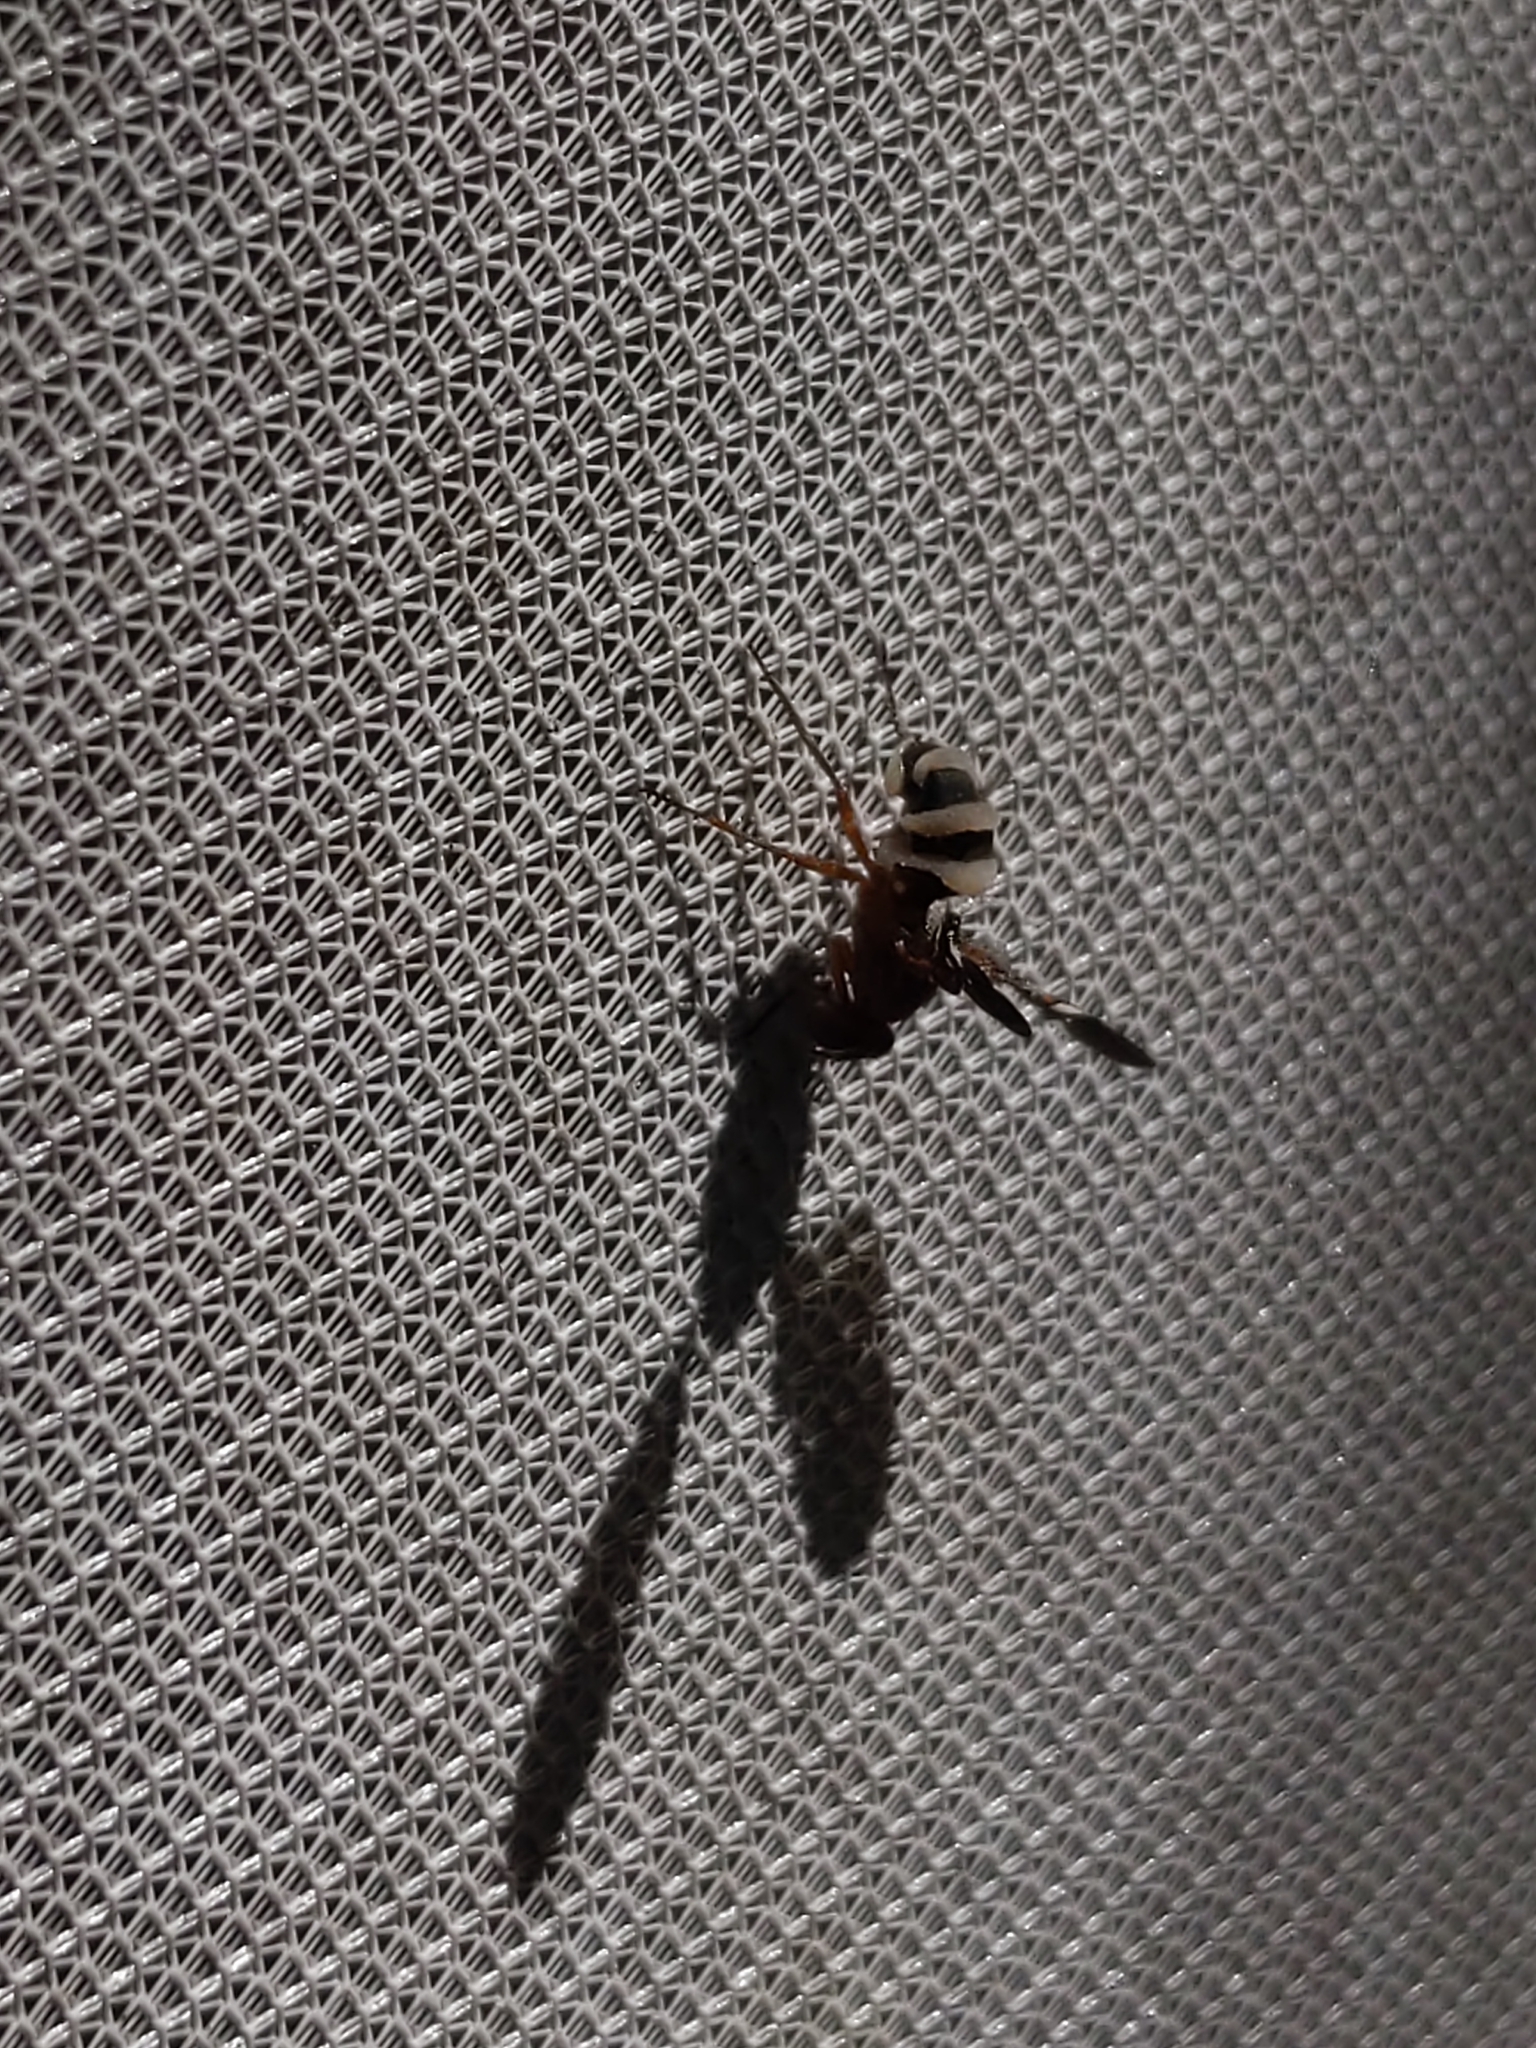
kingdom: Animalia
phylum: Arthropoda
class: Insecta
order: Diptera
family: Ulidiidae
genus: Delphinia
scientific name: Delphinia picta
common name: Common picture-winged fly
